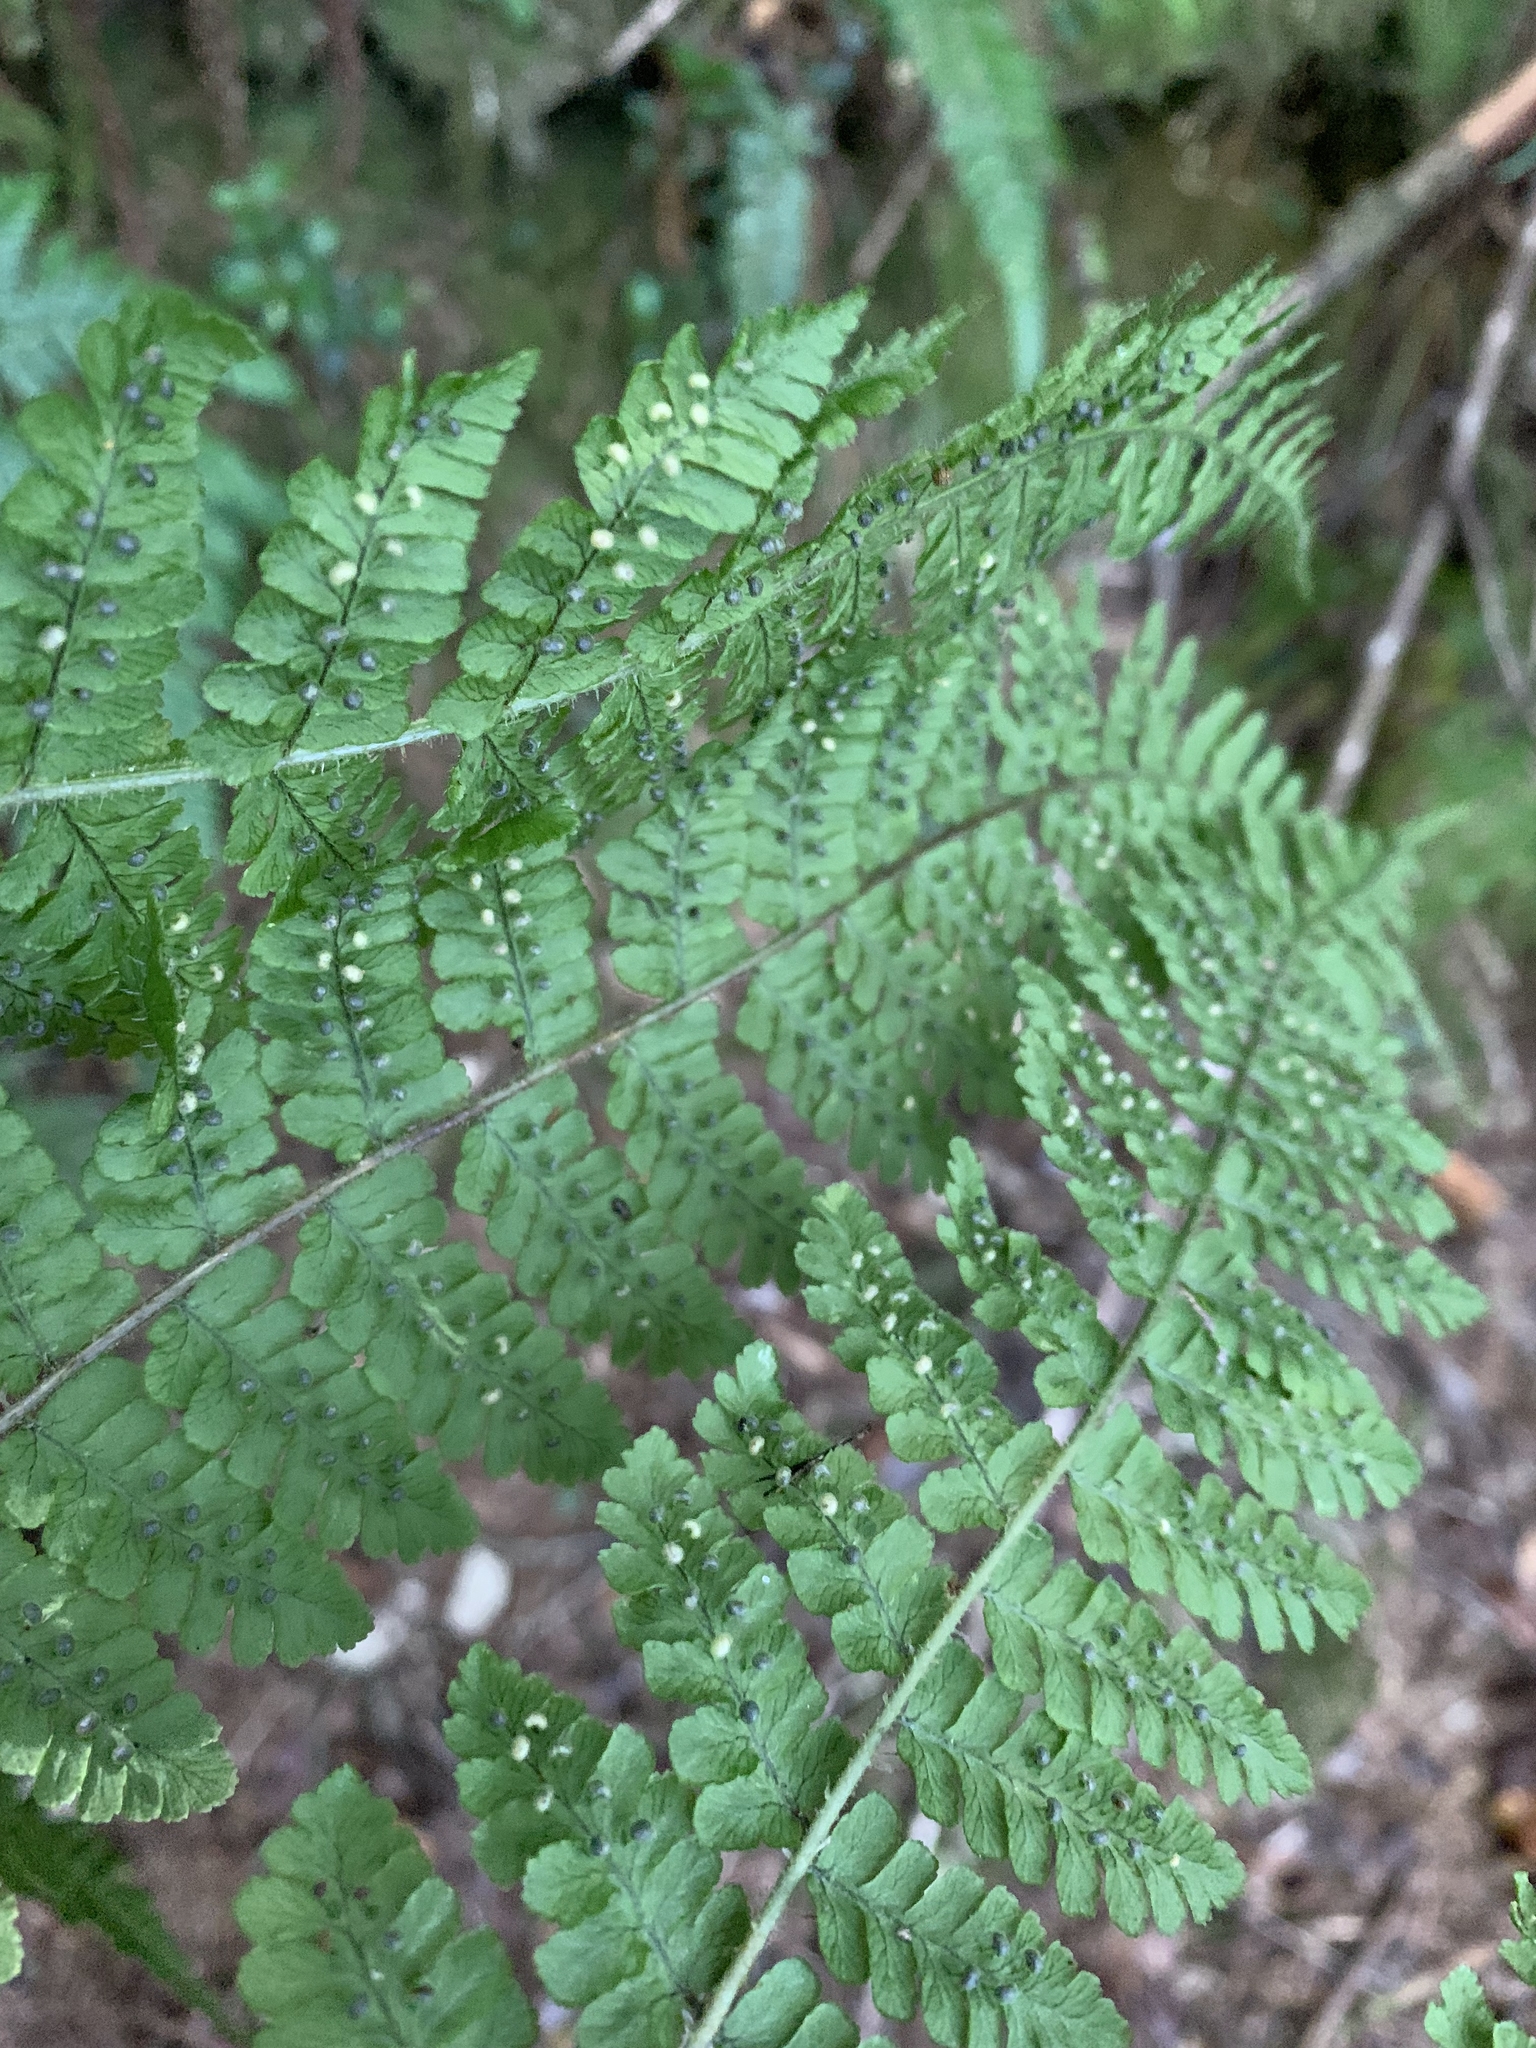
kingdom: Plantae
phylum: Tracheophyta
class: Polypodiopsida
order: Polypodiales
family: Dryopteridaceae
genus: Dryopteris
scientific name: Dryopteris peranema
